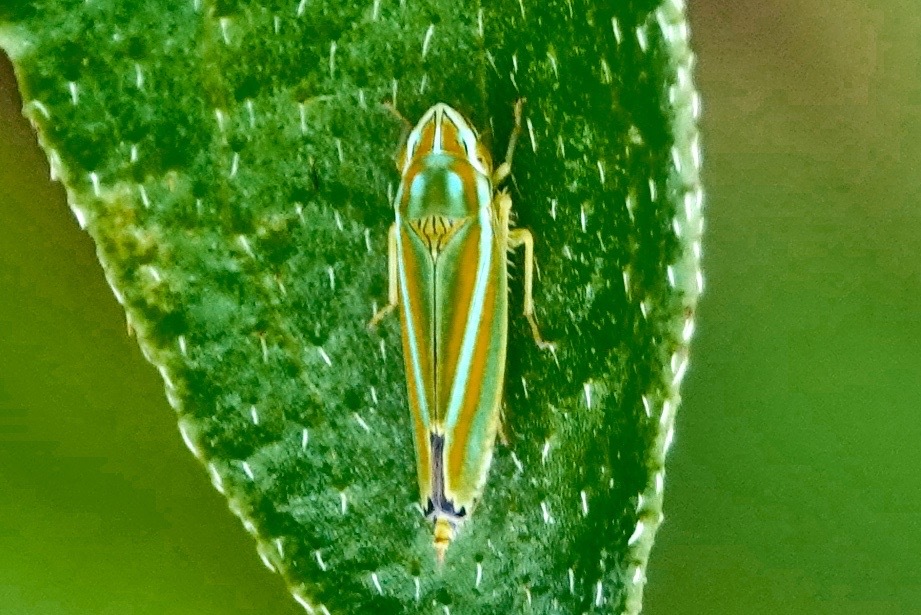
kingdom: Animalia
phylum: Arthropoda
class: Insecta
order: Hemiptera
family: Cicadellidae
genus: Graphocephala
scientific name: Graphocephala versuta
